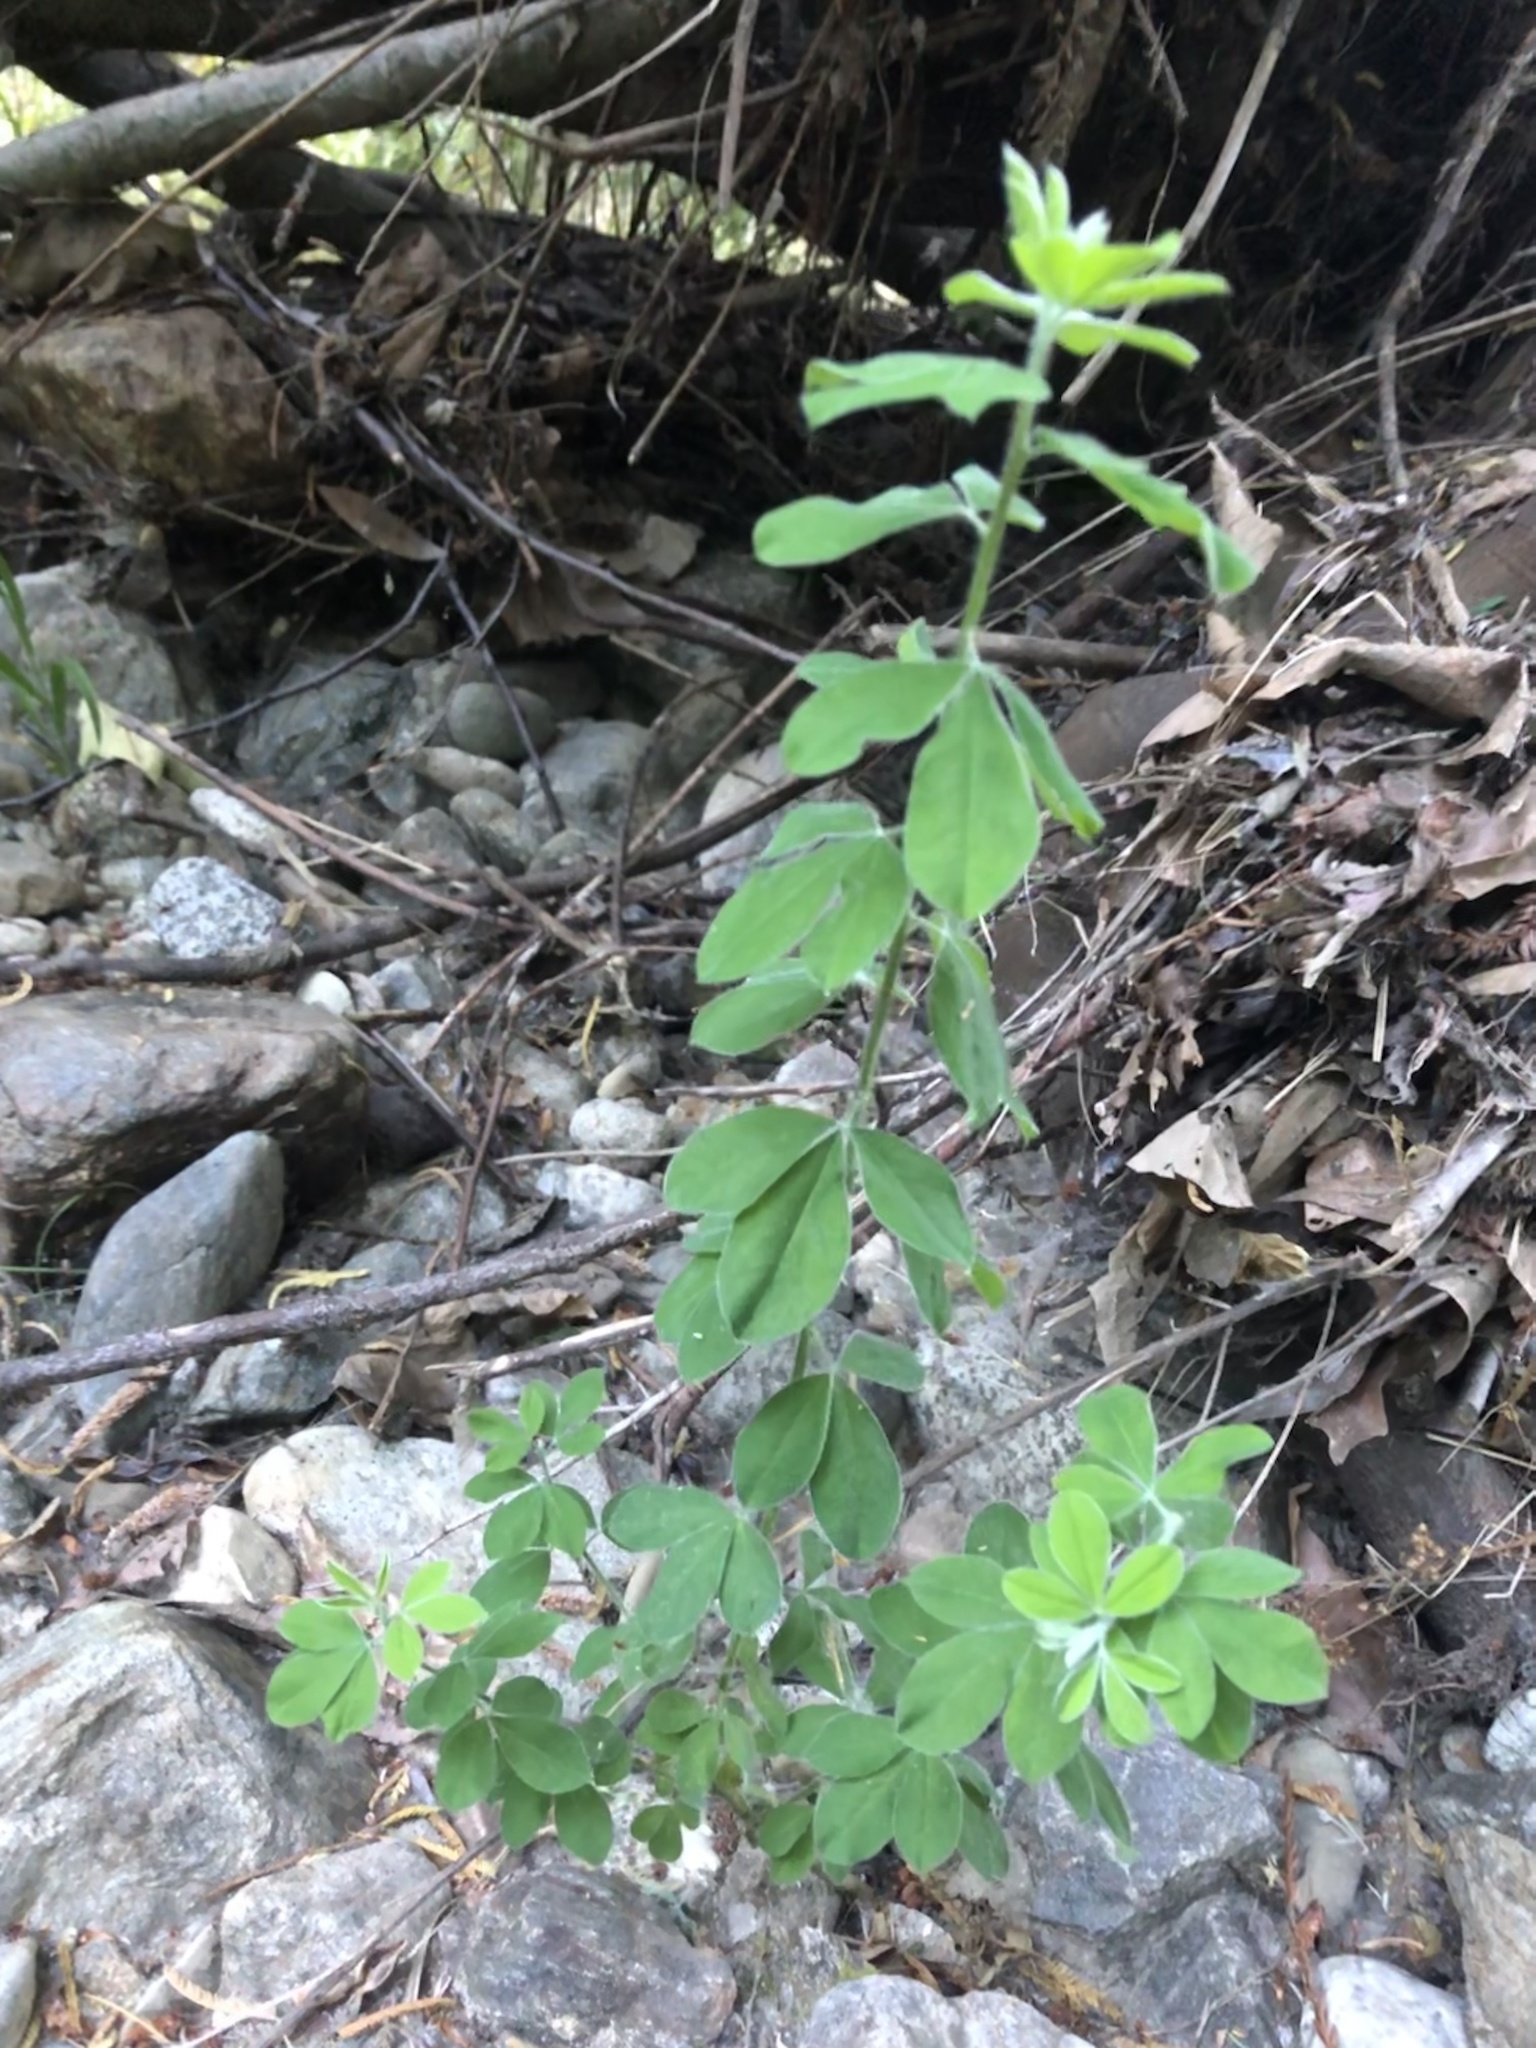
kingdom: Plantae
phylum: Tracheophyta
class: Magnoliopsida
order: Fabales
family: Fabaceae
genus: Genista
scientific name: Genista monspessulana
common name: Montpellier broom
